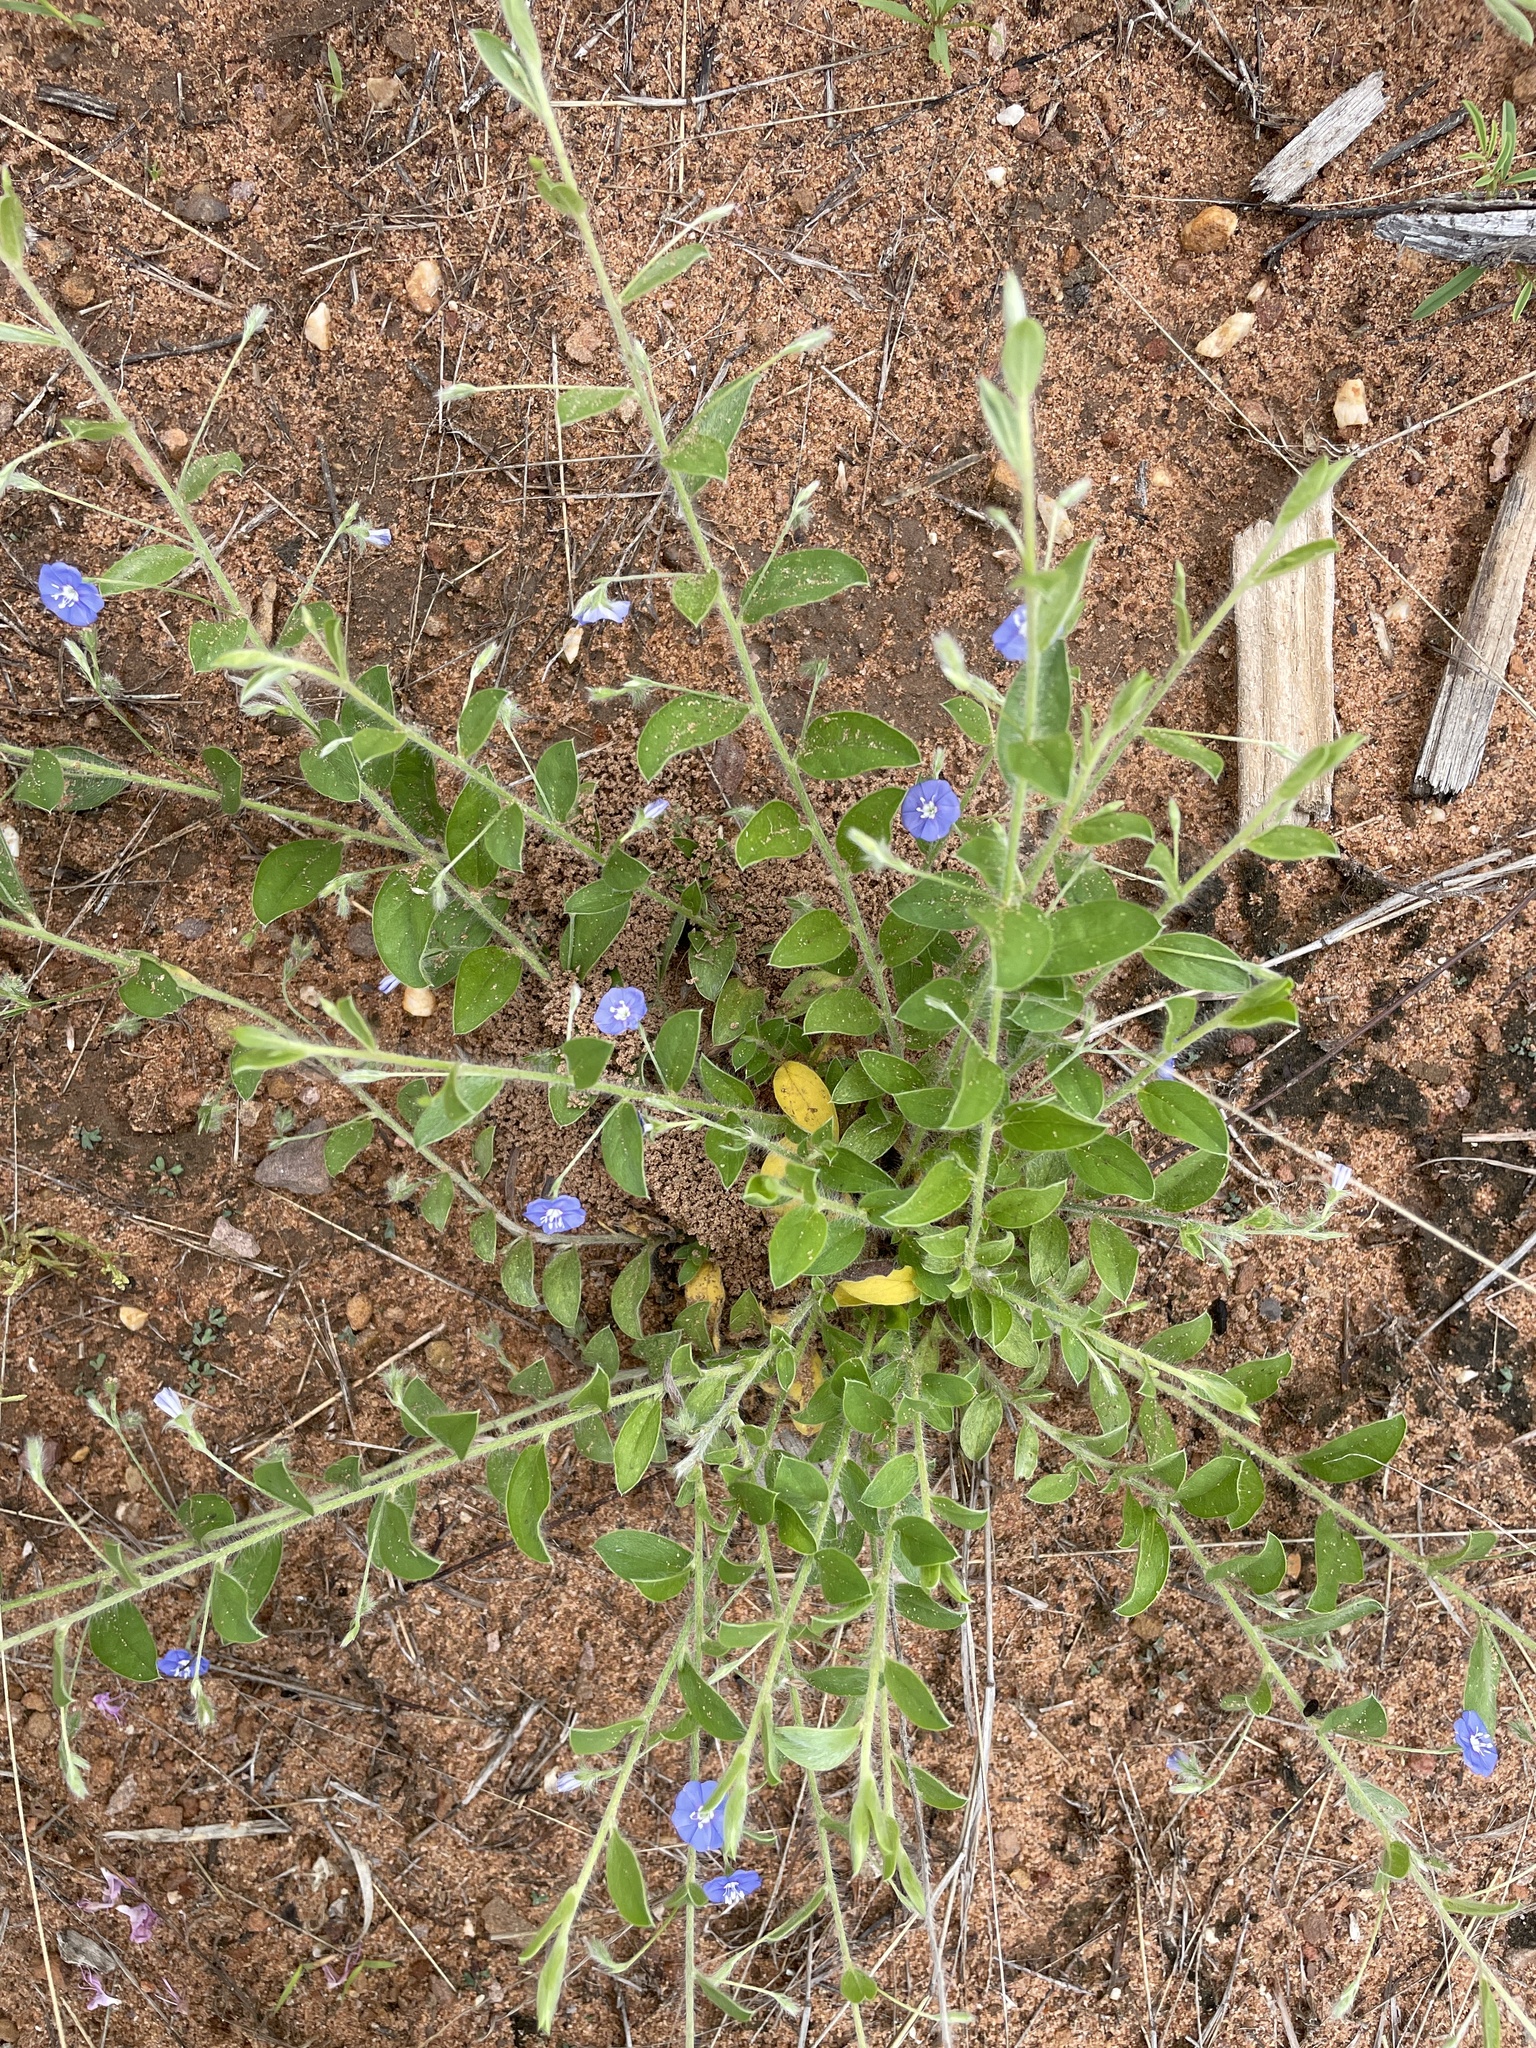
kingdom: Plantae
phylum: Tracheophyta
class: Magnoliopsida
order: Solanales
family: Convolvulaceae
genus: Evolvulus
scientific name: Evolvulus alsinoides
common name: Slender dwarf morning-glory
